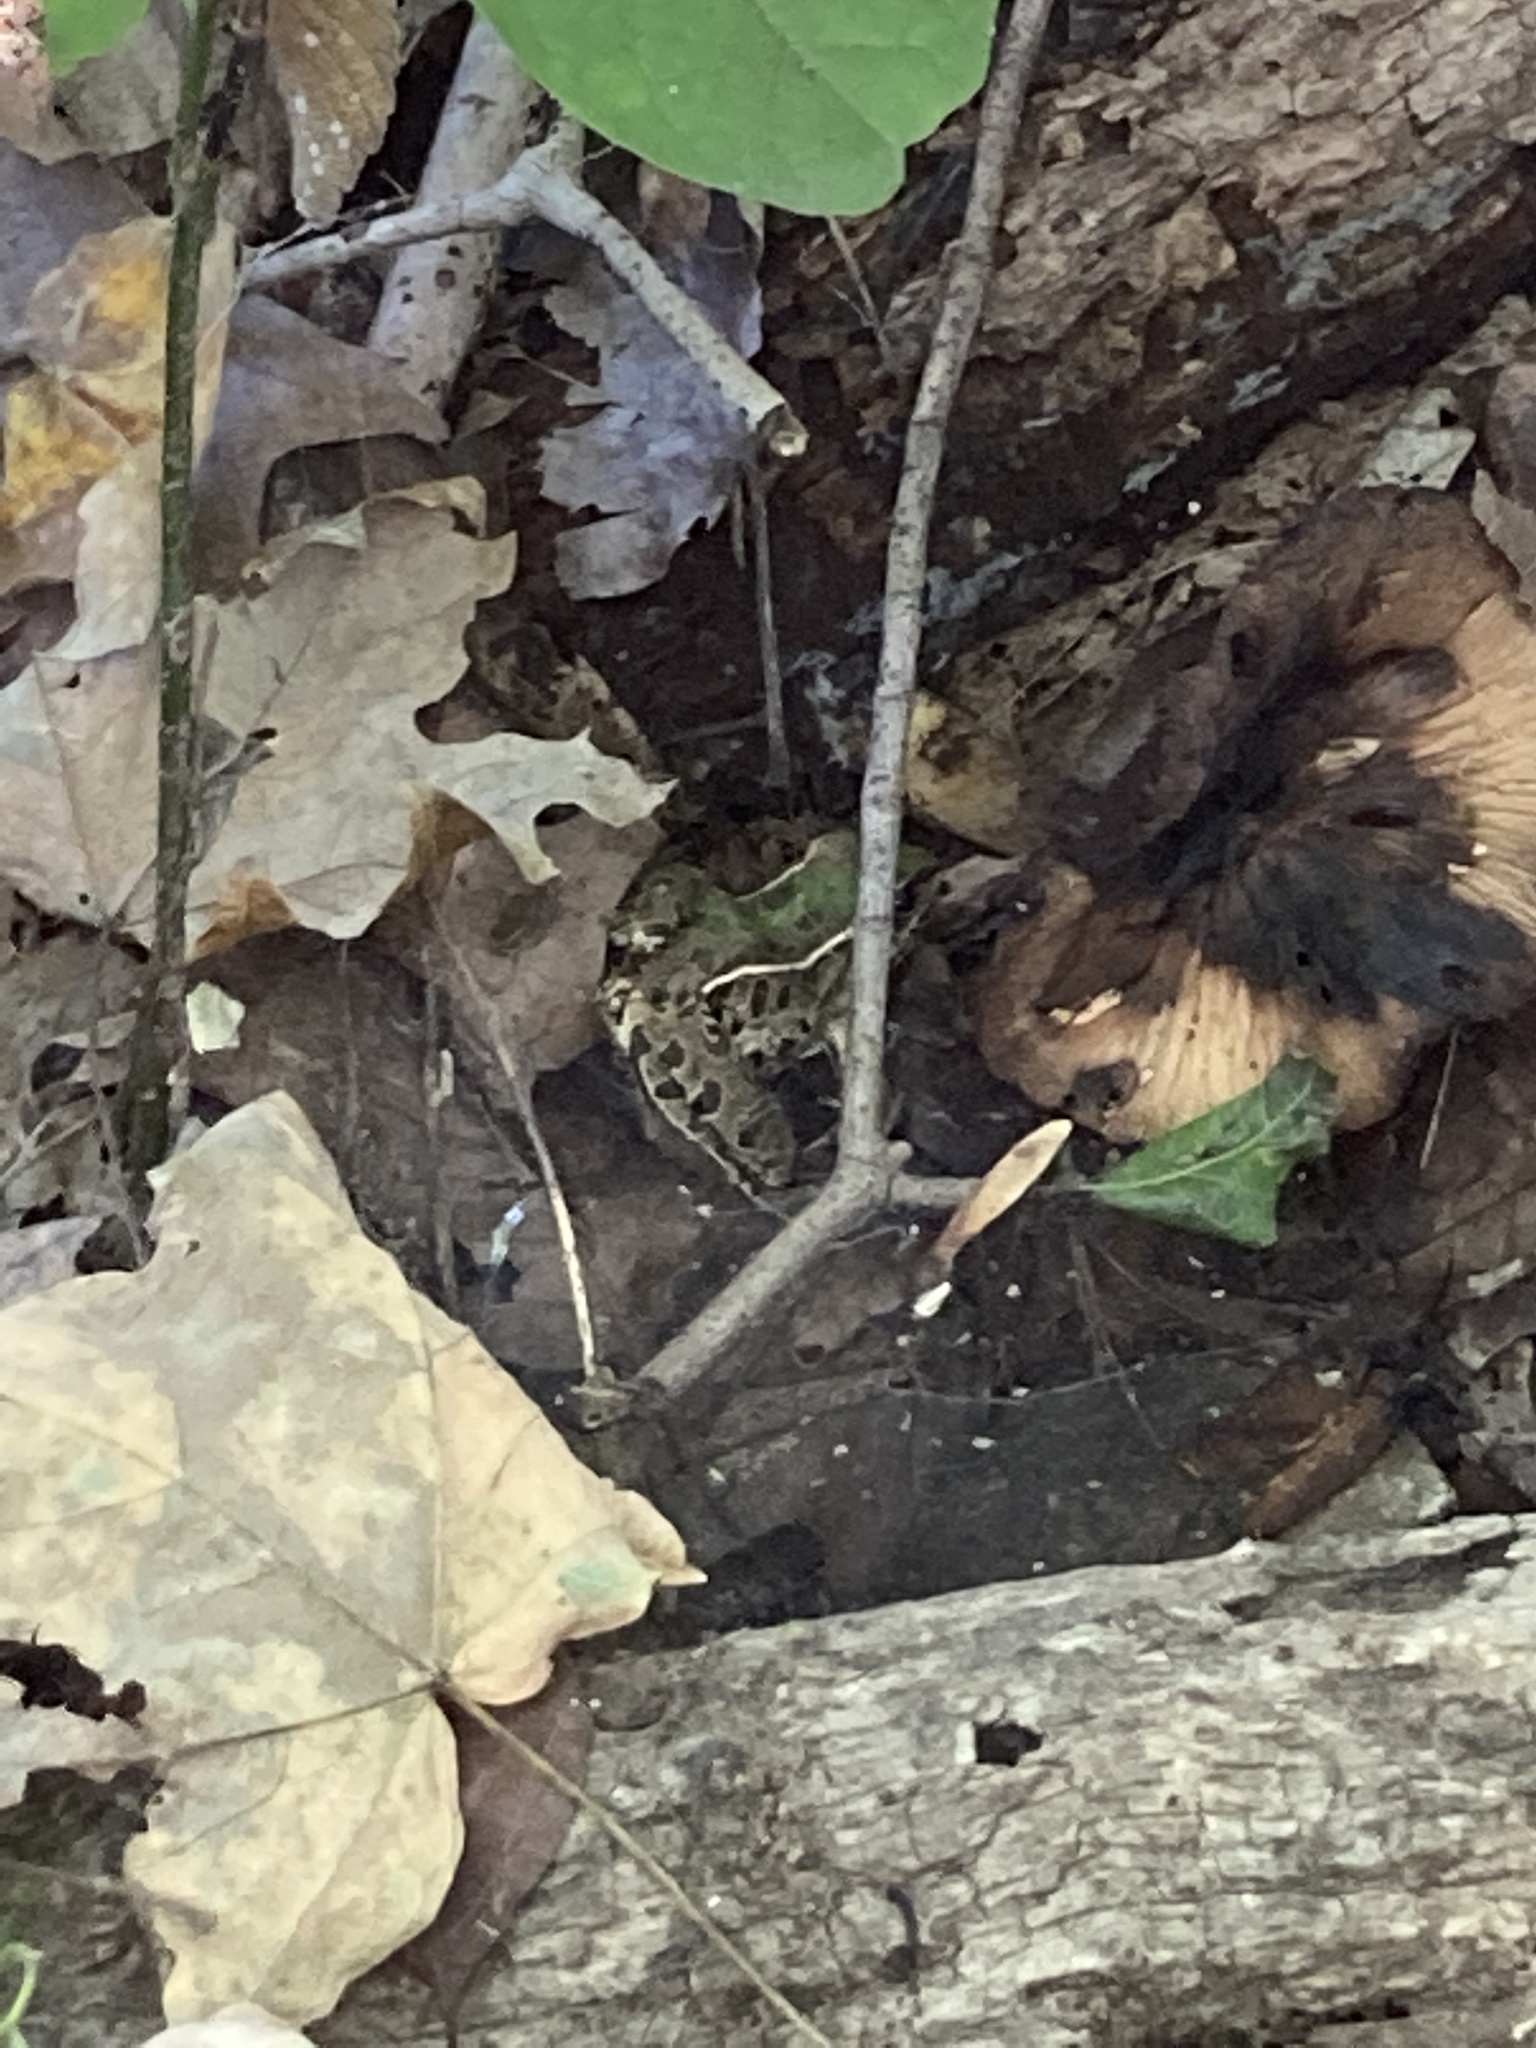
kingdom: Animalia
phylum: Chordata
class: Amphibia
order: Anura
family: Ranidae
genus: Lithobates
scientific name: Lithobates sphenocephalus
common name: Southern leopard frog
